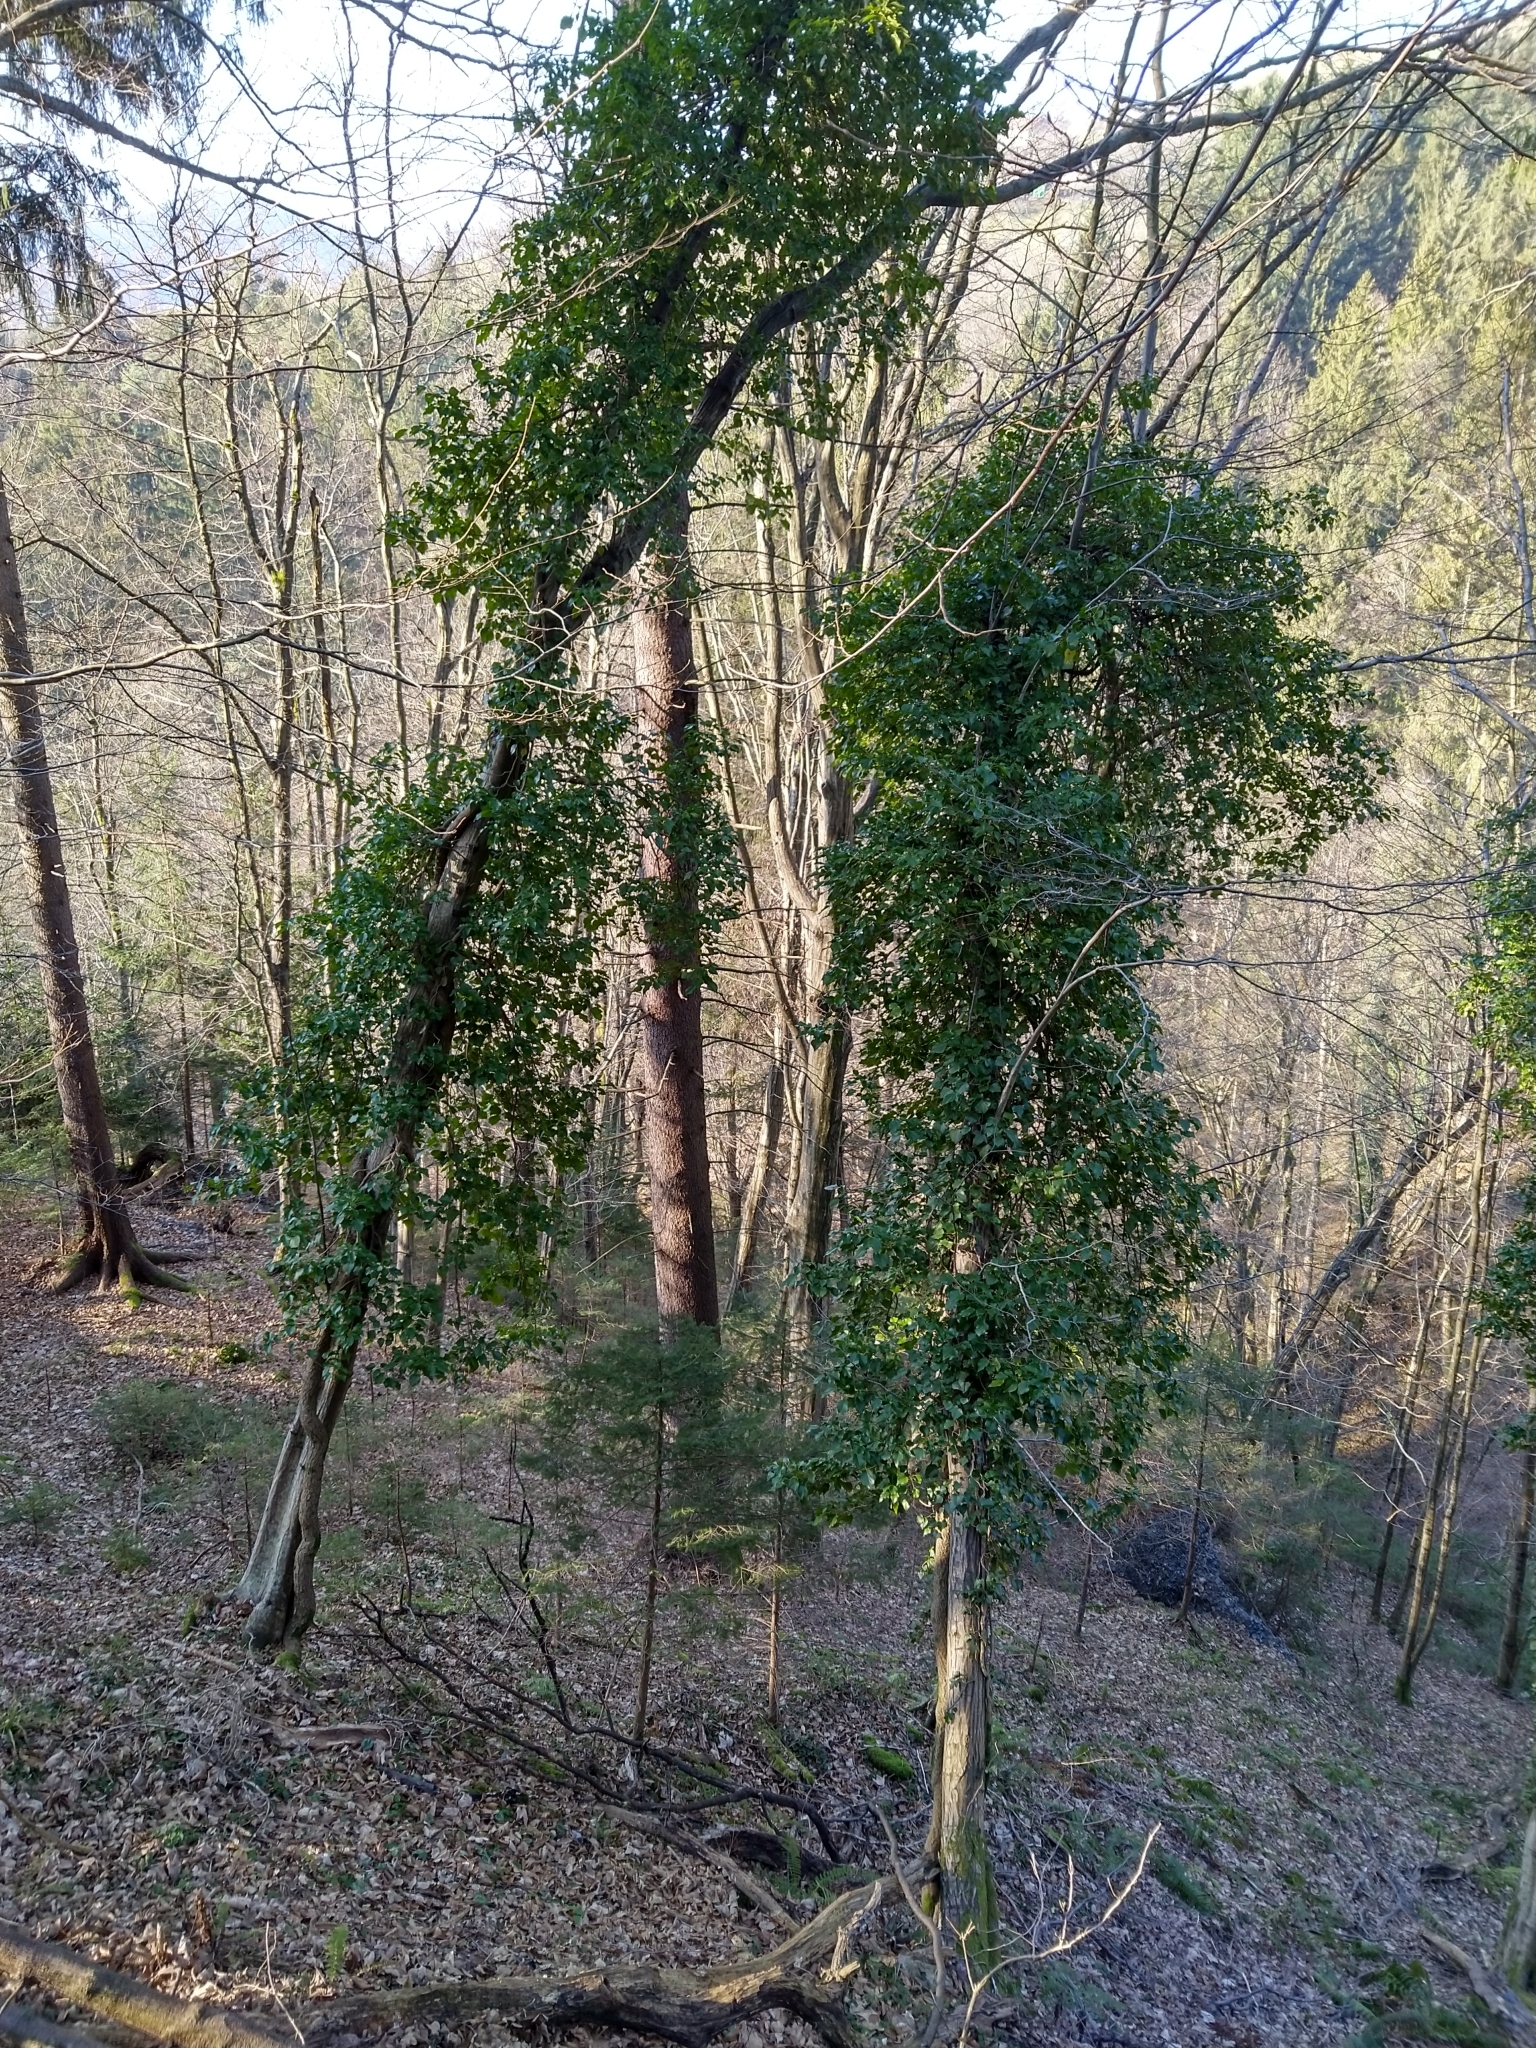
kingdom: Plantae
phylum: Tracheophyta
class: Magnoliopsida
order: Apiales
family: Araliaceae
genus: Hedera
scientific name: Hedera helix
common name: Ivy
